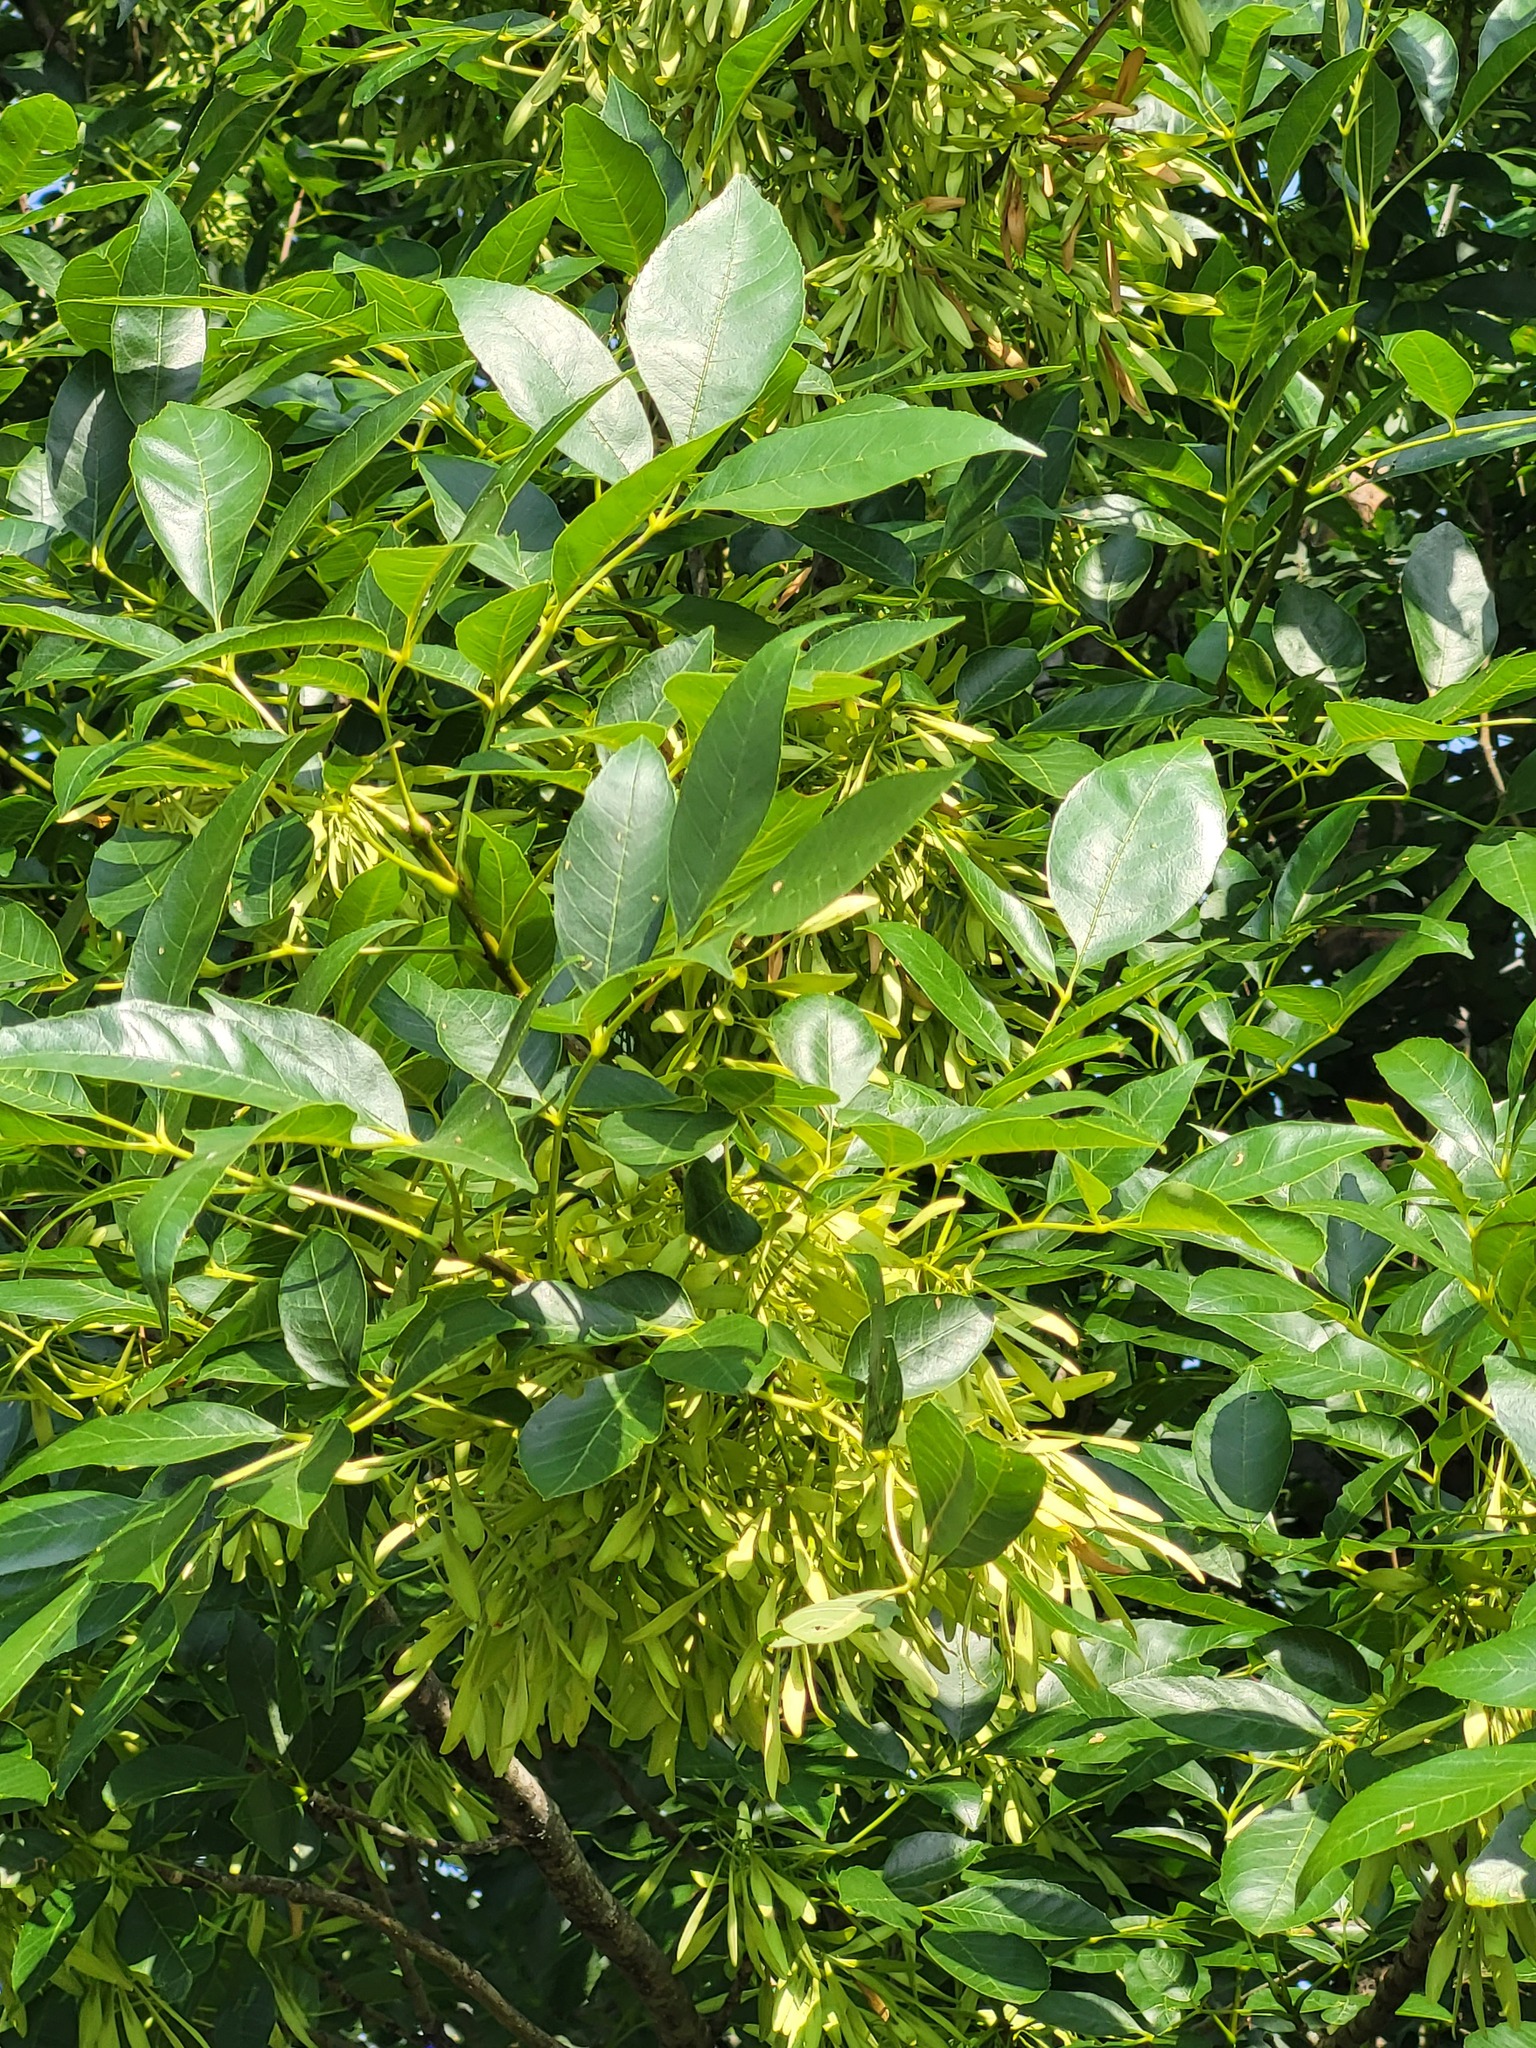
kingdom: Plantae
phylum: Tracheophyta
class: Magnoliopsida
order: Lamiales
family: Oleaceae
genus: Fraxinus
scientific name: Fraxinus pennsylvanica
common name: Green ash
